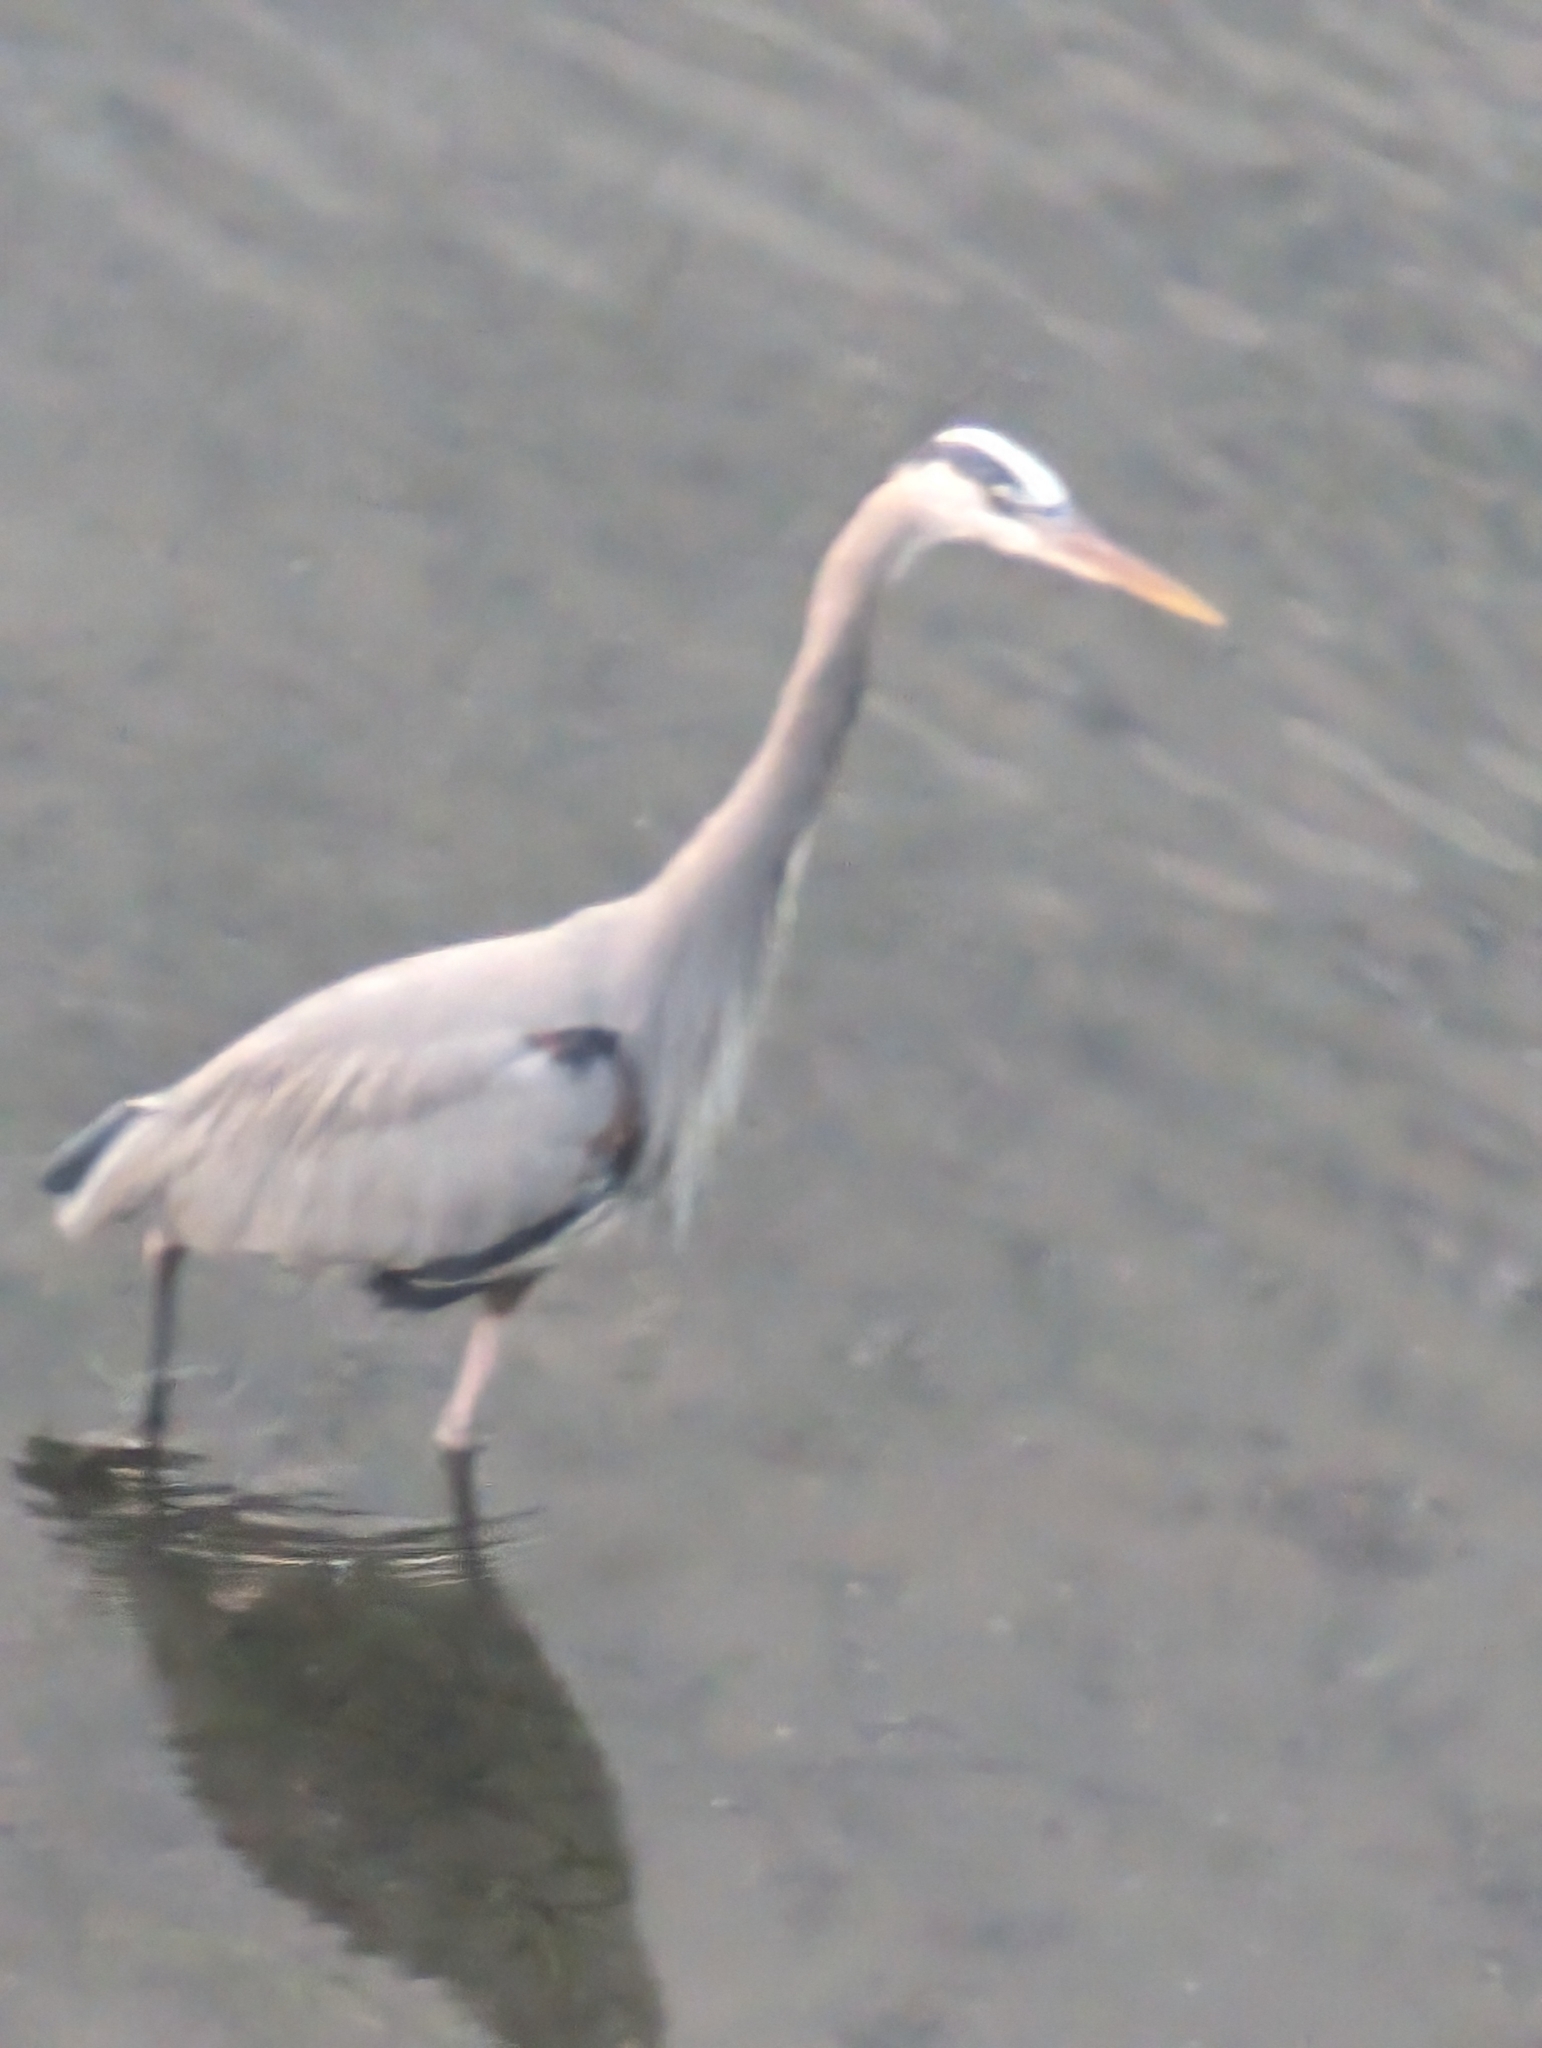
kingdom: Animalia
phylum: Chordata
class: Aves
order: Pelecaniformes
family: Ardeidae
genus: Ardea
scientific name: Ardea herodias
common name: Great blue heron
